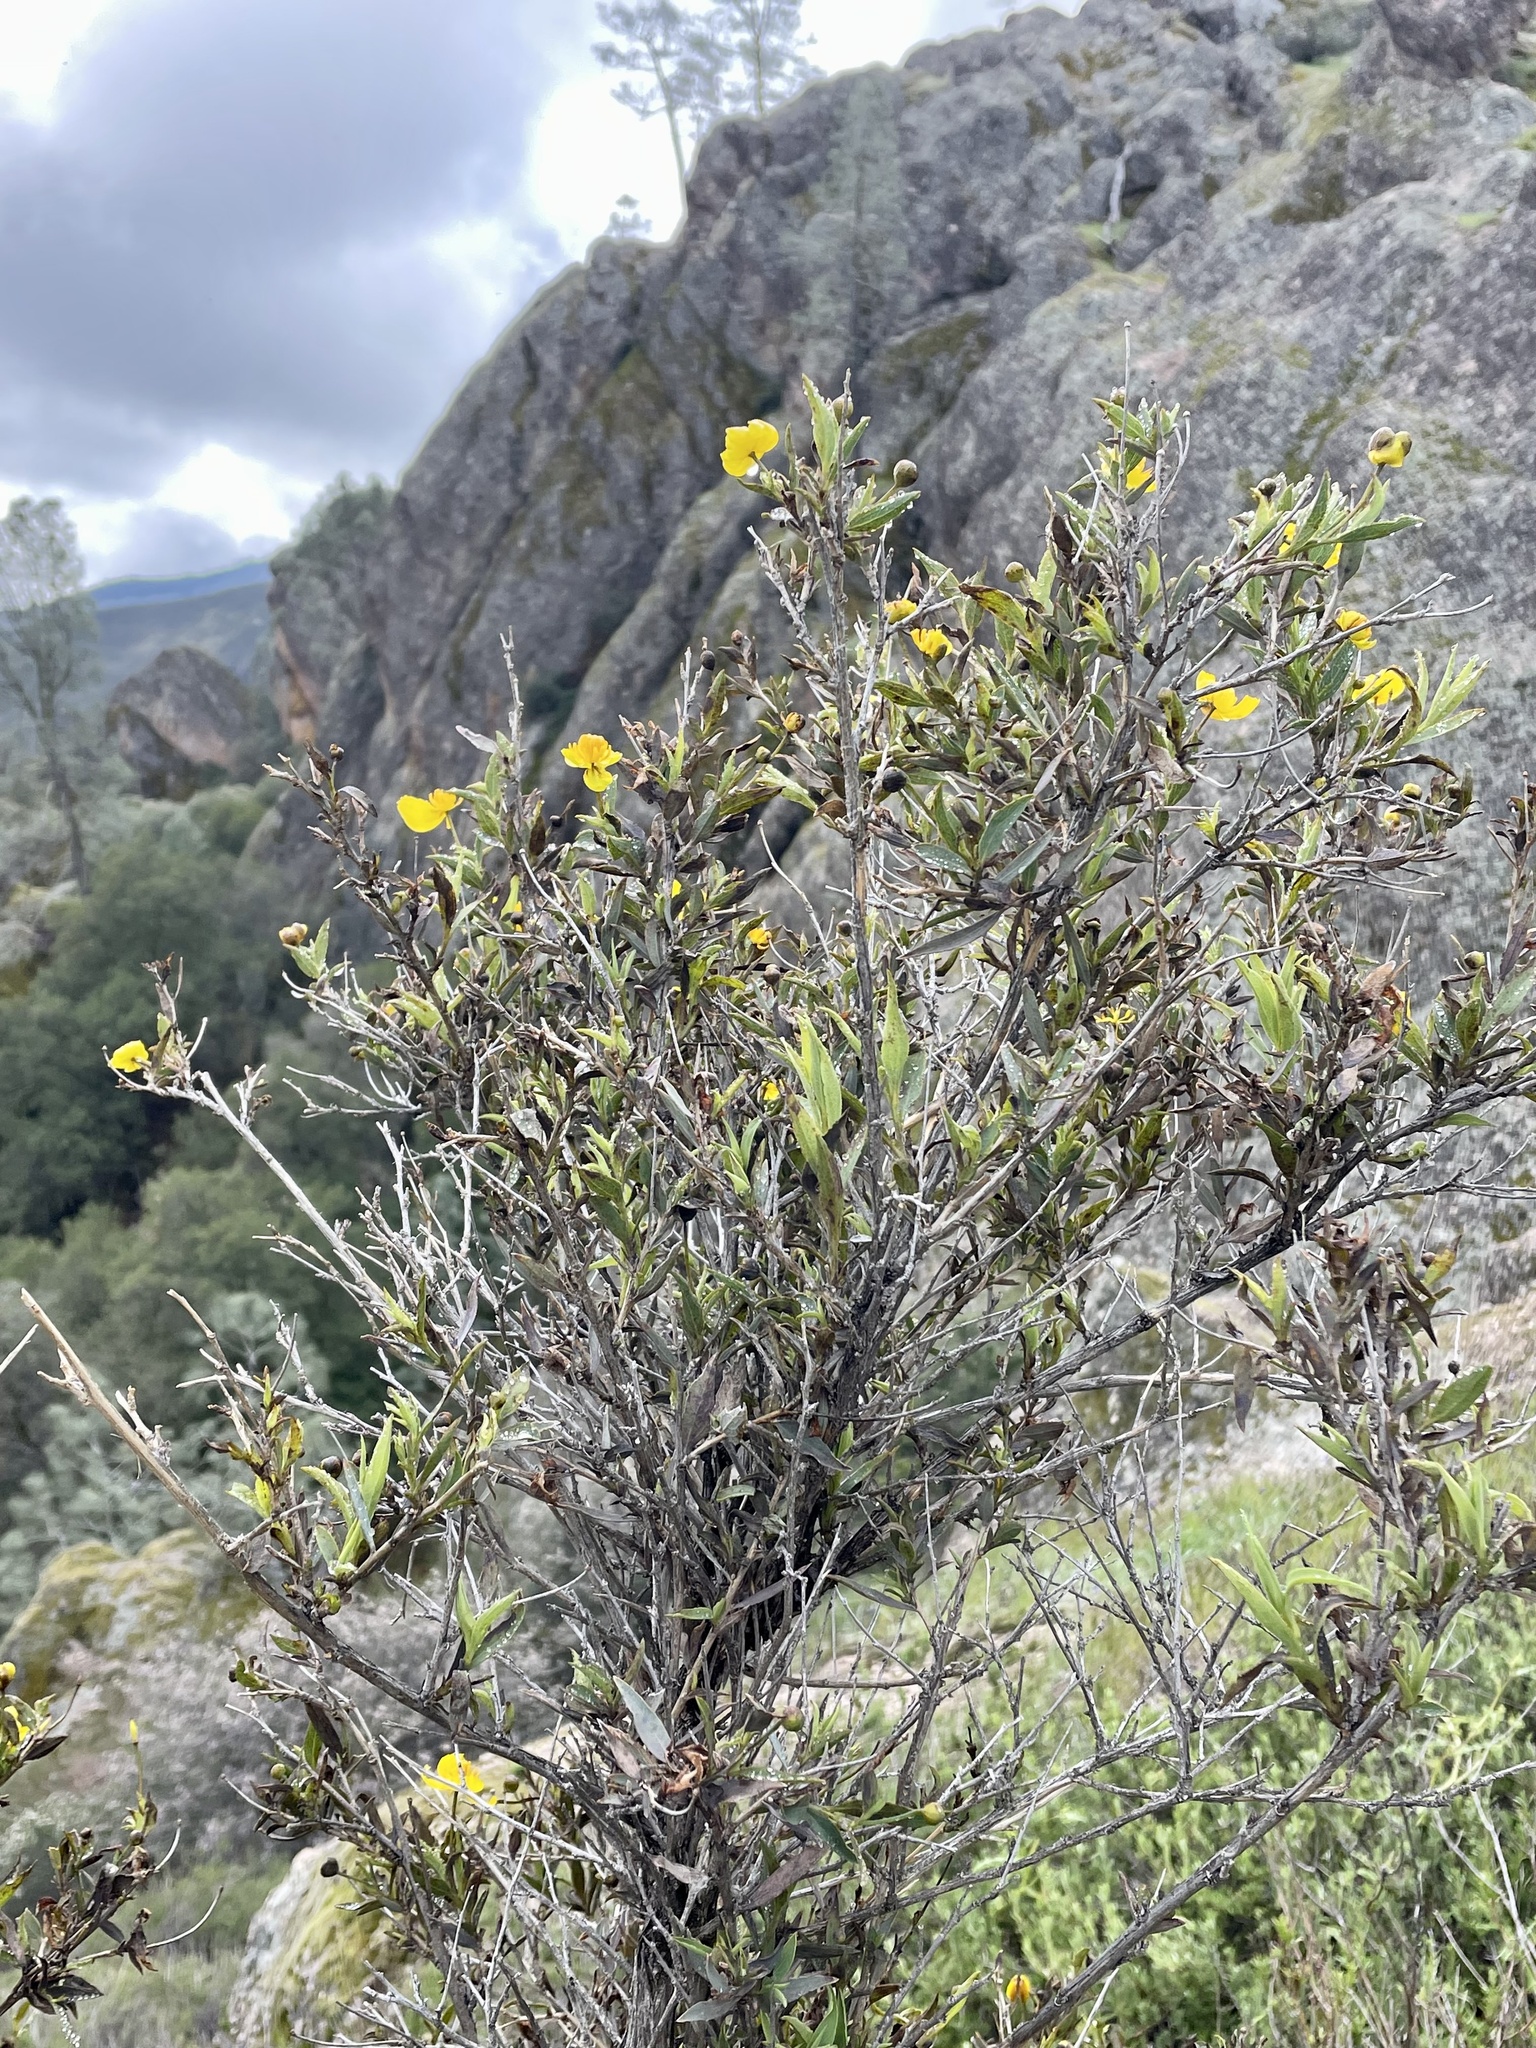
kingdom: Plantae
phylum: Tracheophyta
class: Magnoliopsida
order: Ranunculales
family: Papaveraceae
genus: Dendromecon
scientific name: Dendromecon rigida
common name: Tree poppy
